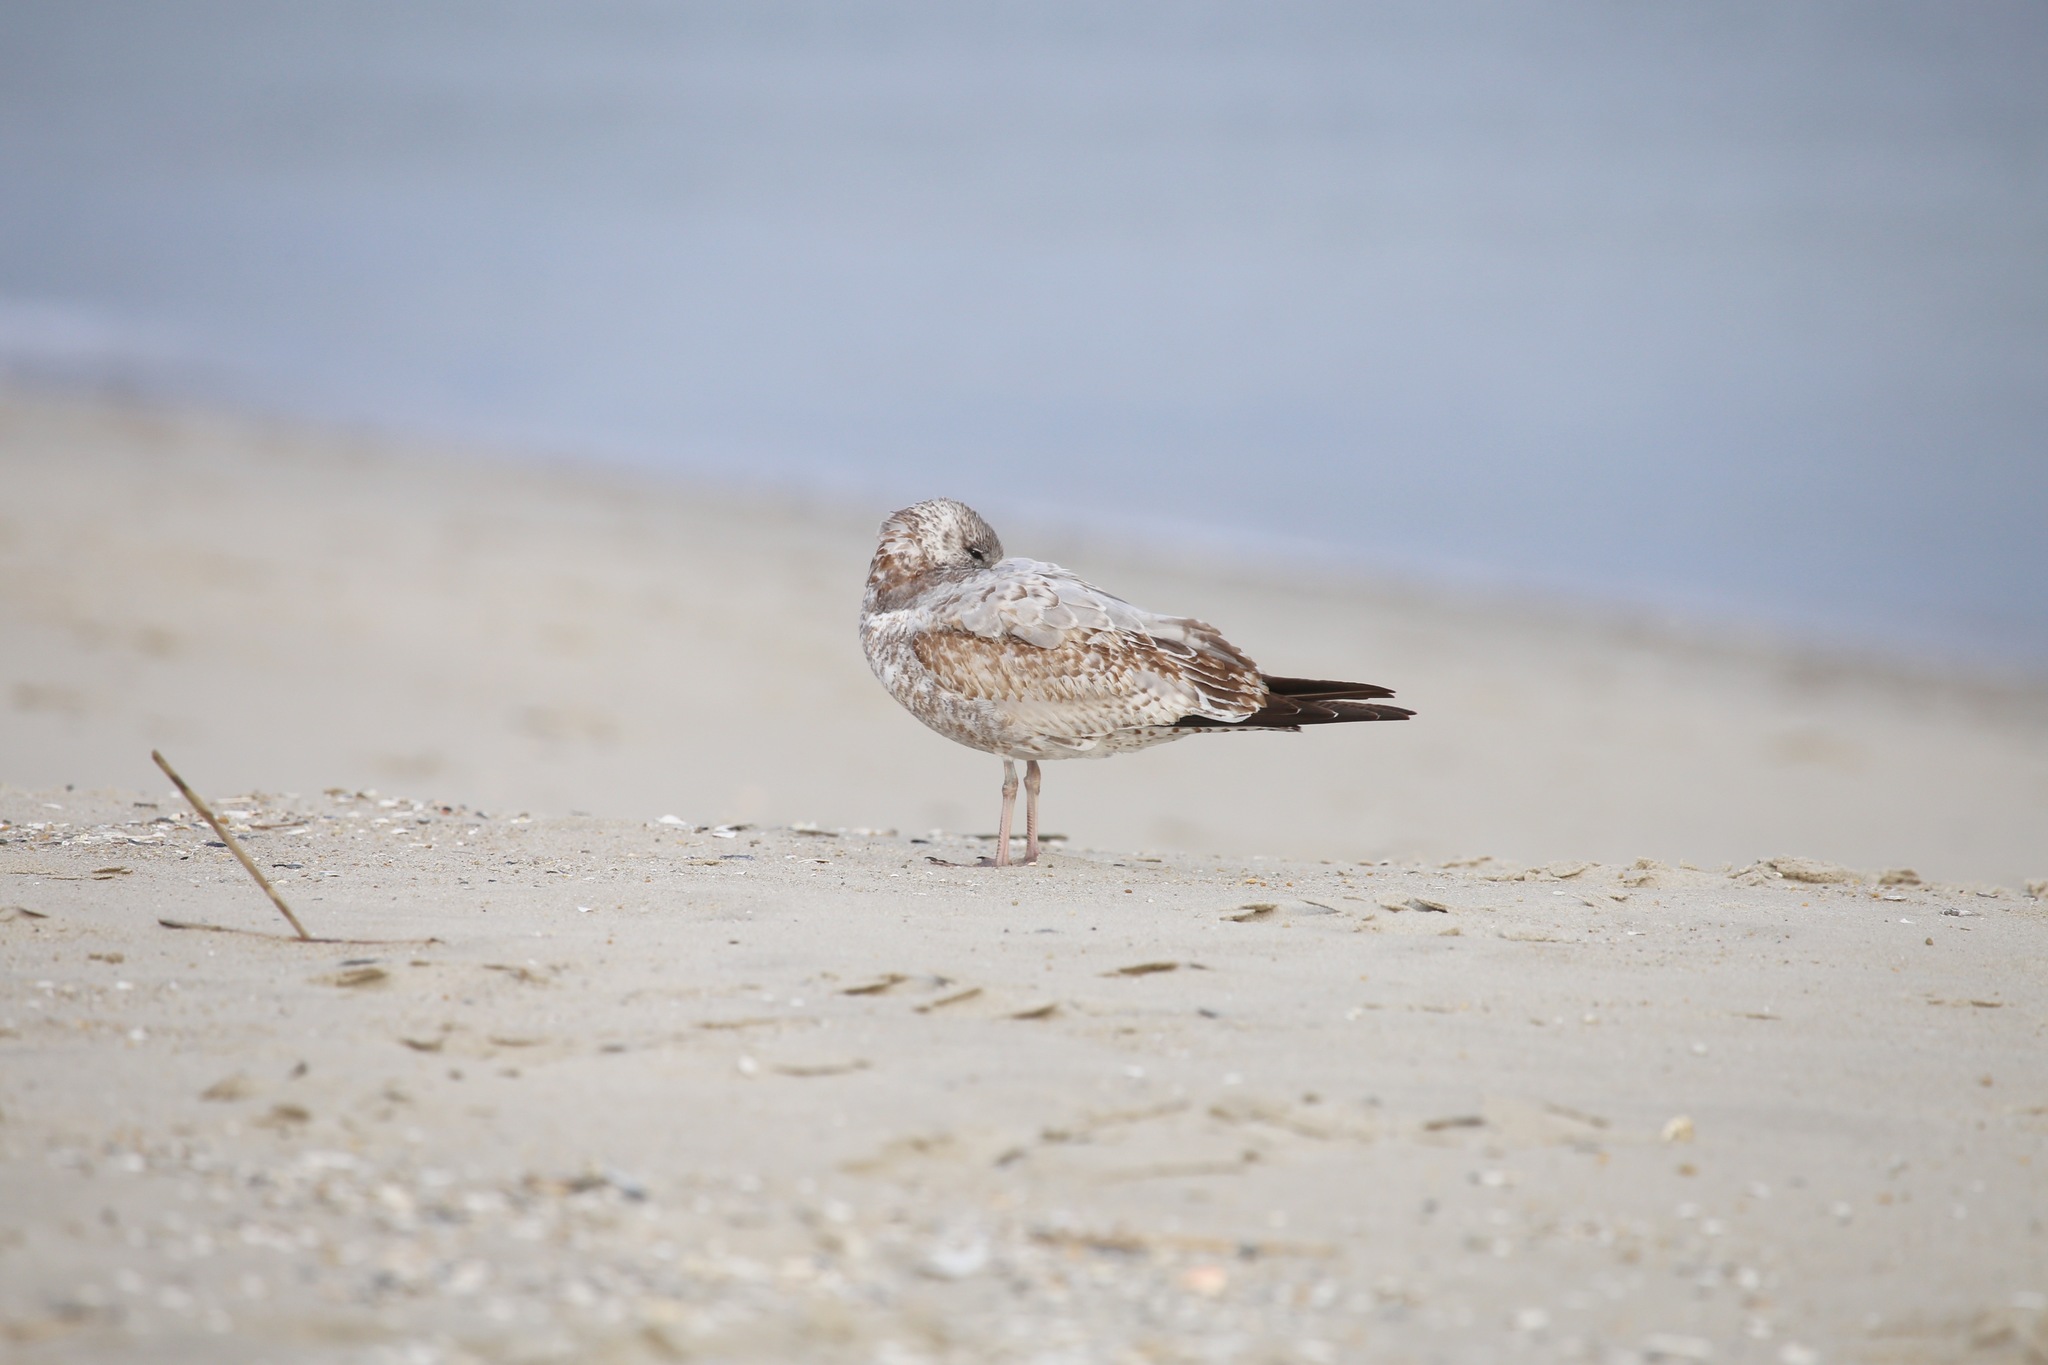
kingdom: Animalia
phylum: Chordata
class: Aves
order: Charadriiformes
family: Laridae
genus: Larus
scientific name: Larus delawarensis
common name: Ring-billed gull
